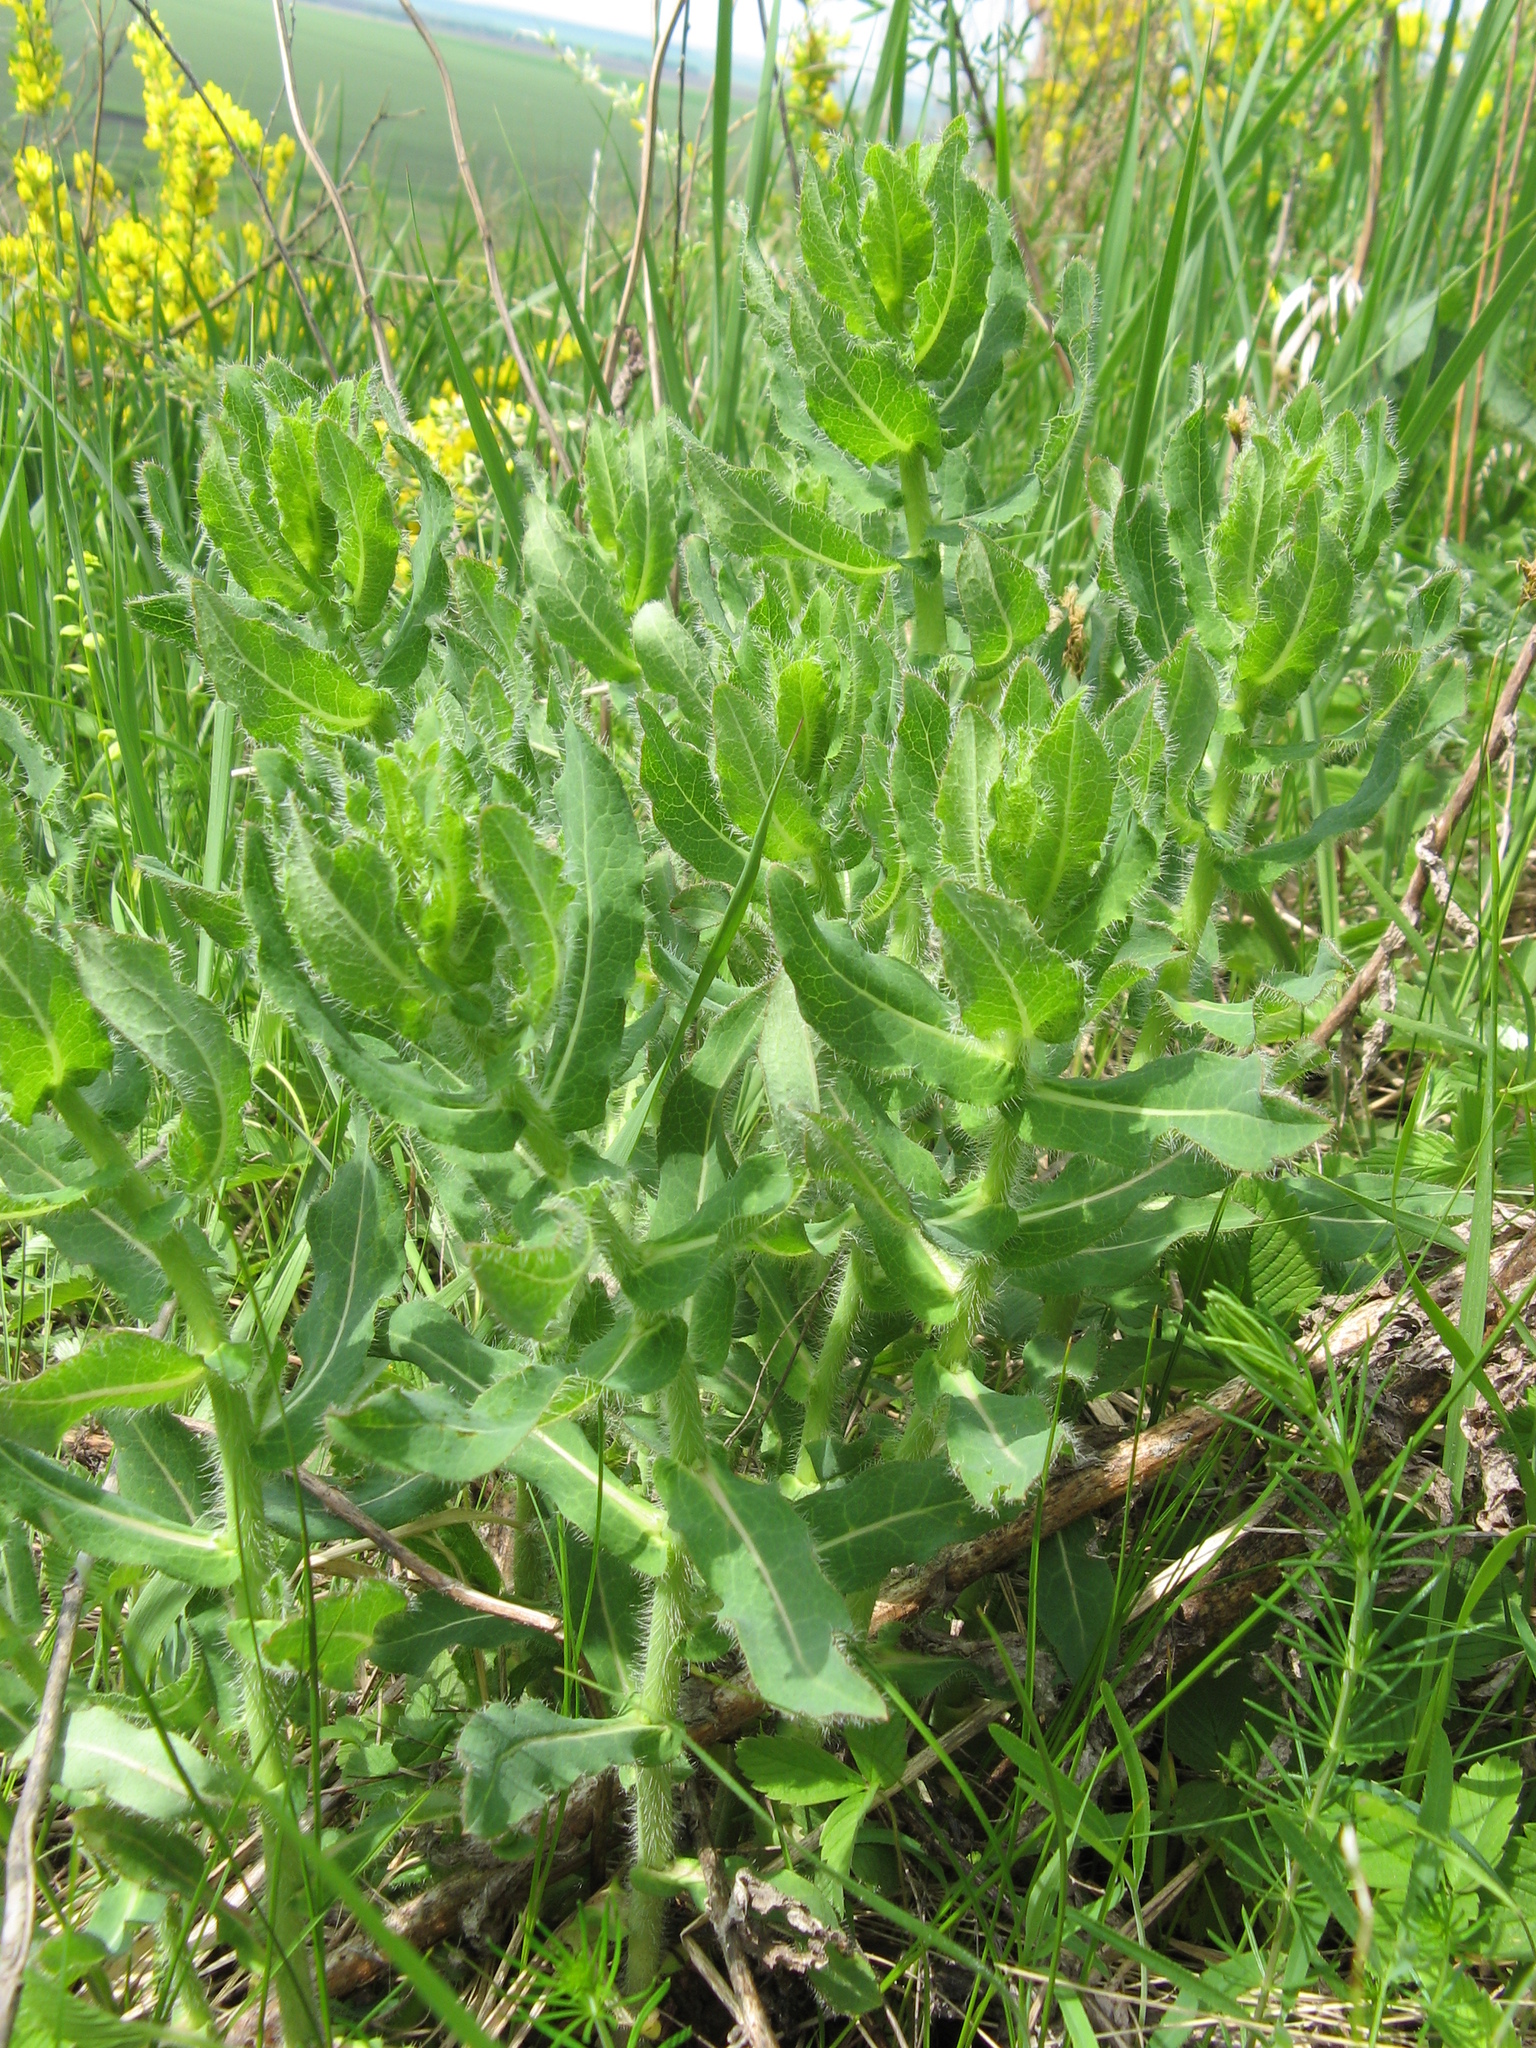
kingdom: Plantae
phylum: Tracheophyta
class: Magnoliopsida
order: Asterales
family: Asteraceae
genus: Hieracium
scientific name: Hieracium virosum
